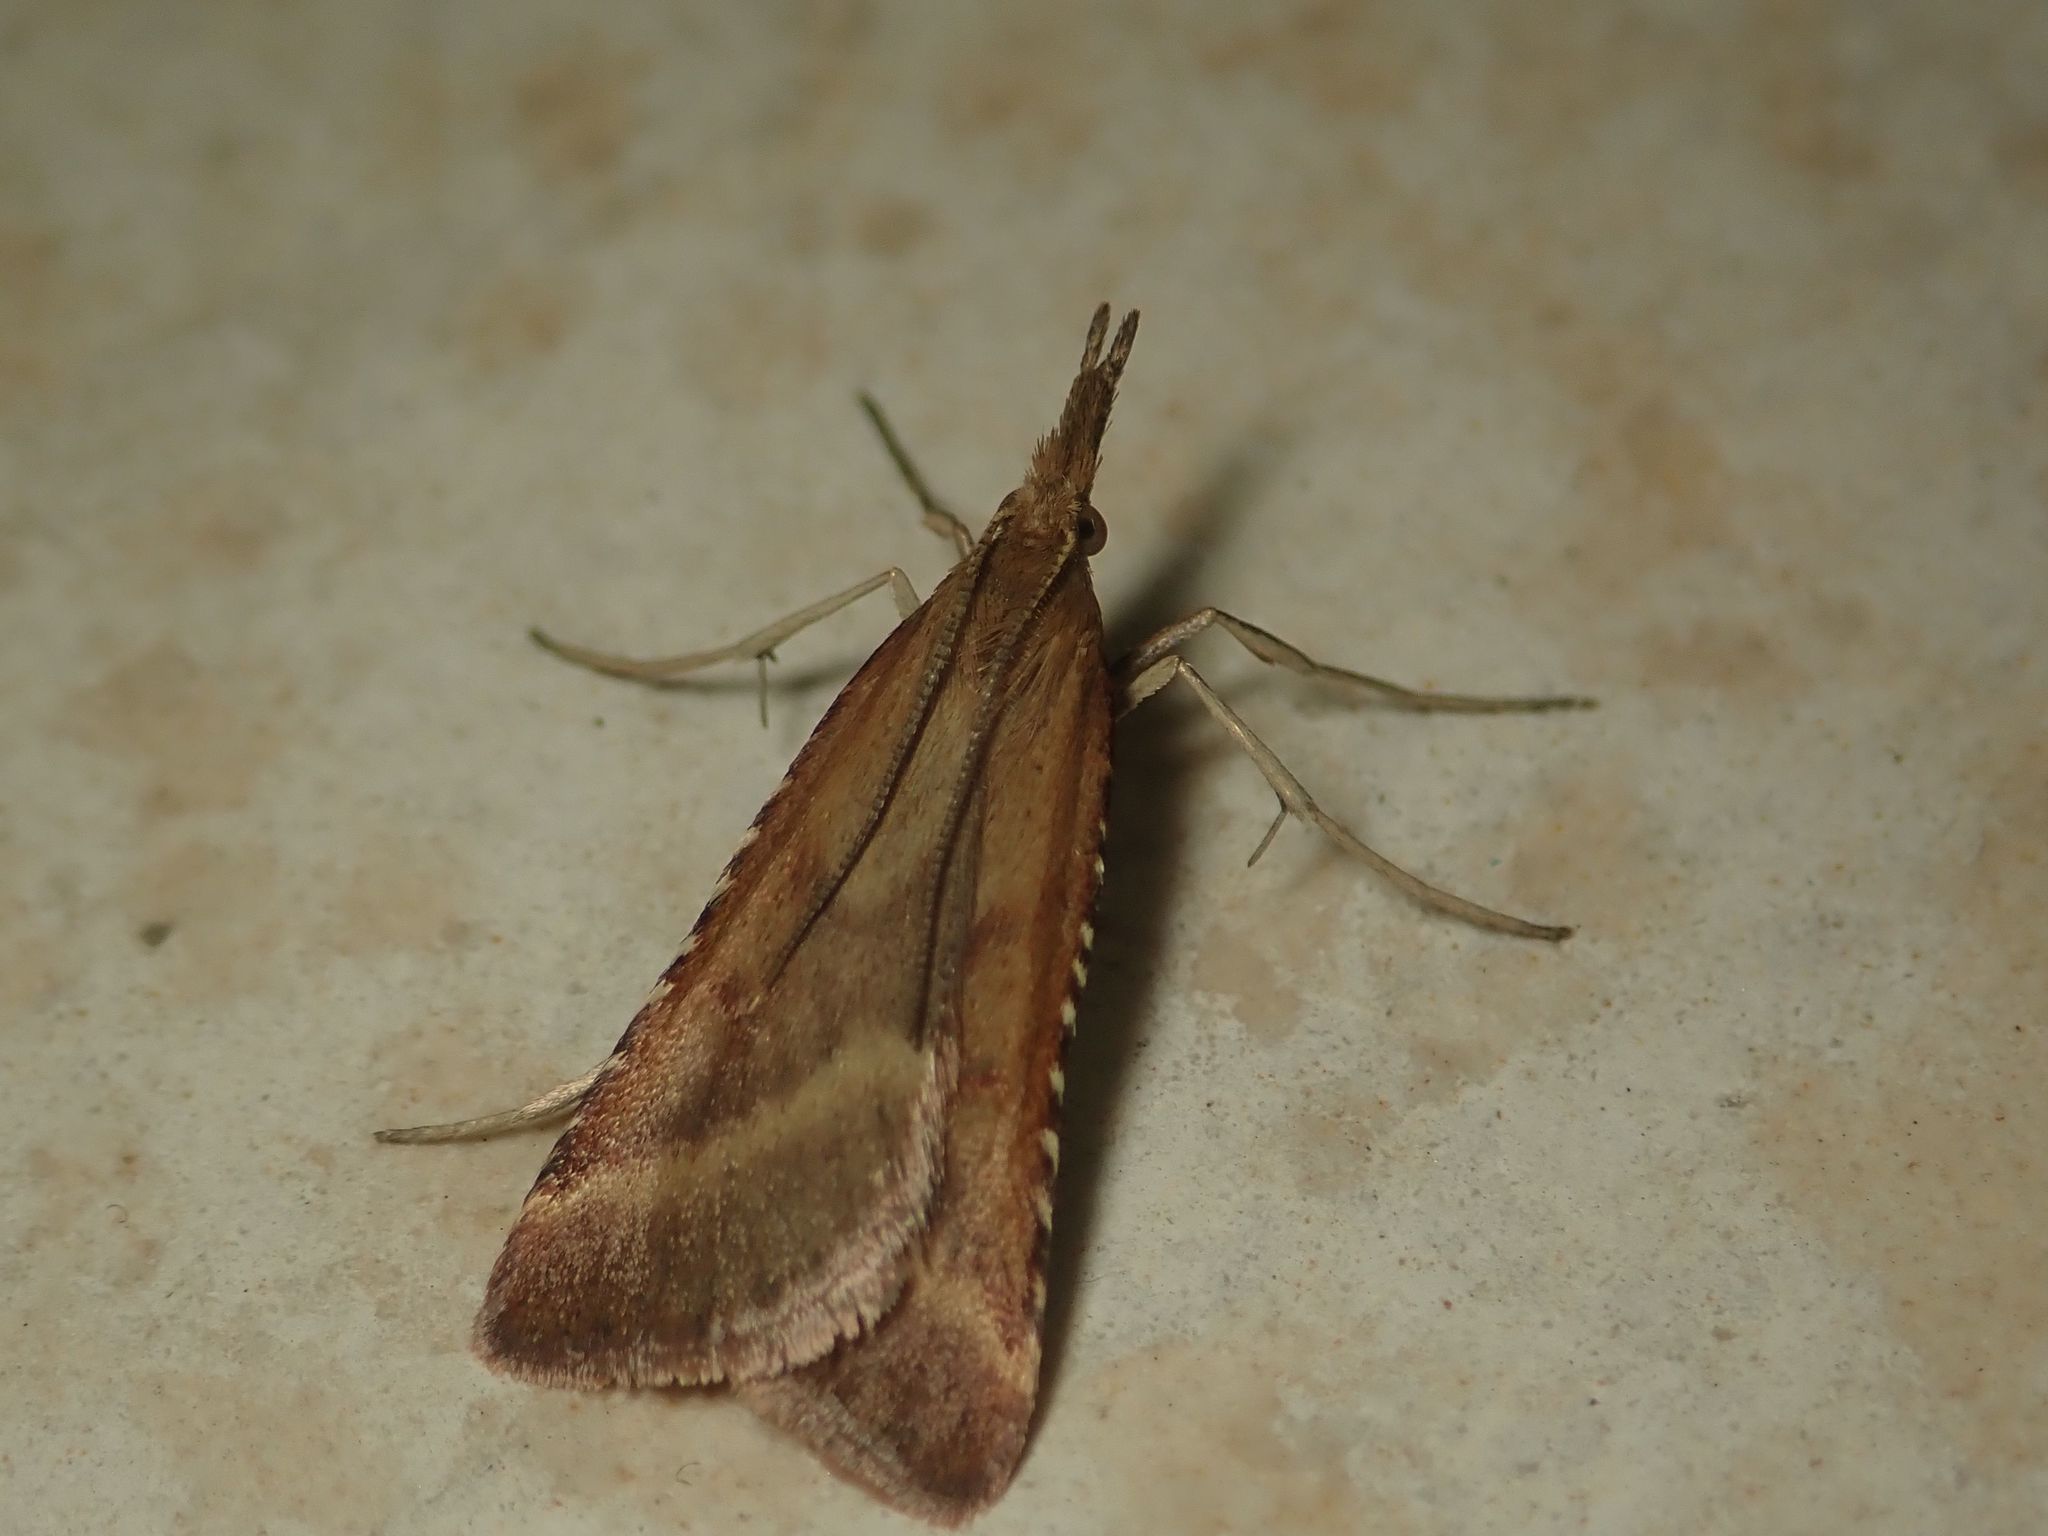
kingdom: Animalia
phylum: Arthropoda
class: Insecta
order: Lepidoptera
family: Pyralidae
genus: Synaphe
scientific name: Synaphe punctalis
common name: Long-legged tabby
